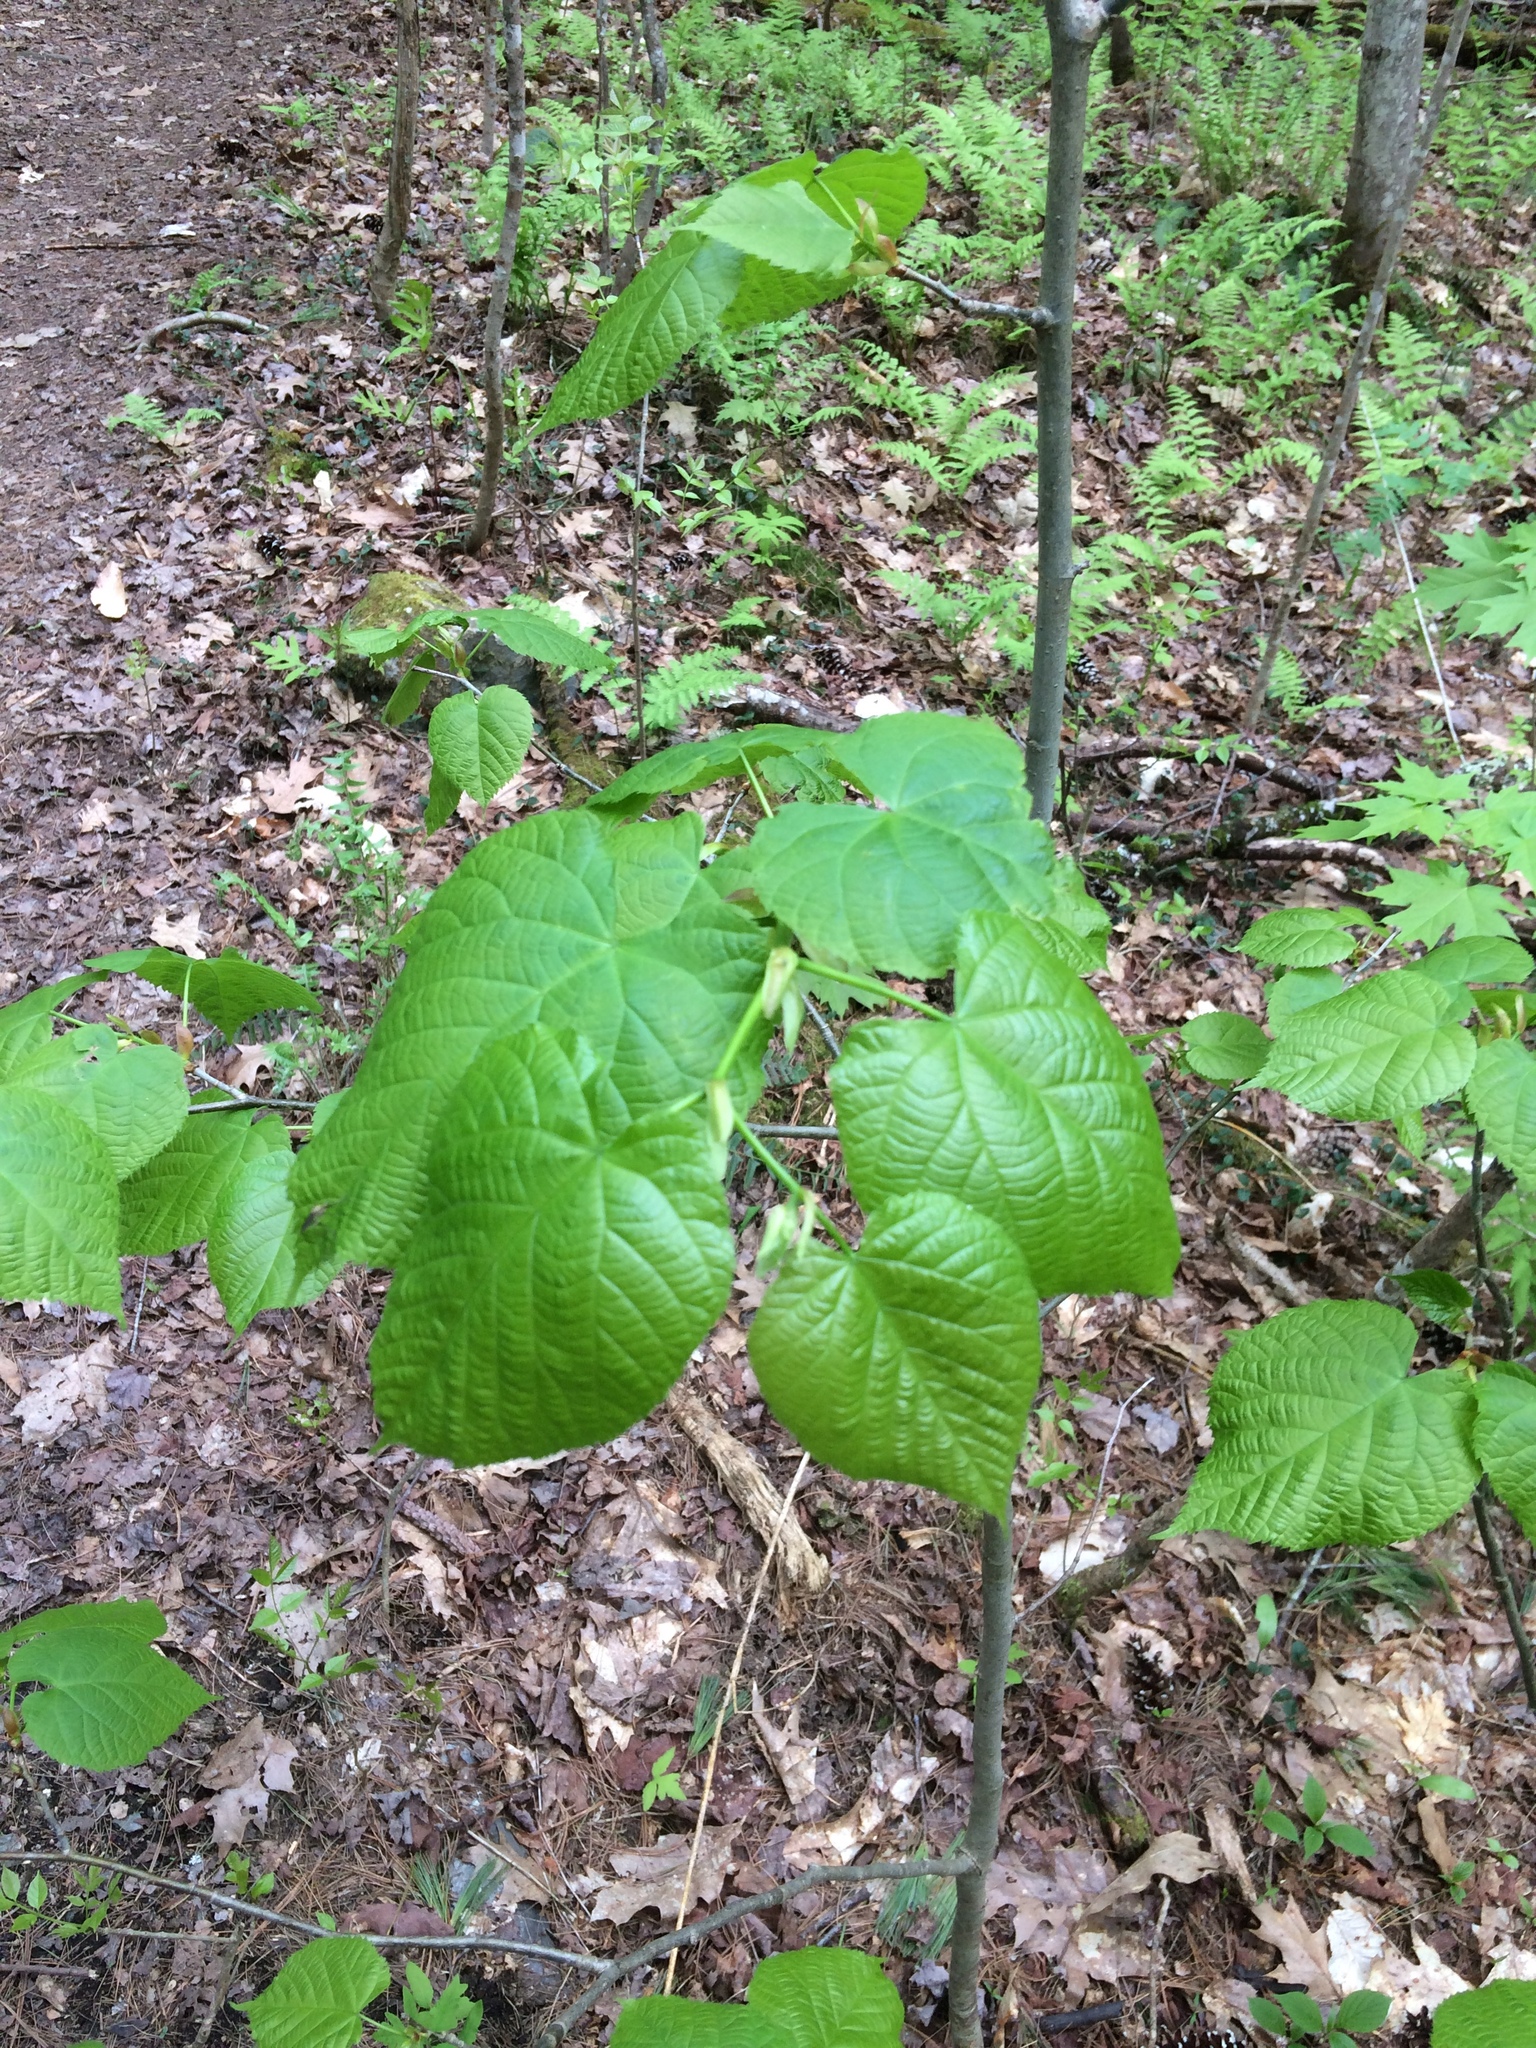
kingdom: Plantae
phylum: Tracheophyta
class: Magnoliopsida
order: Malvales
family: Malvaceae
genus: Tilia
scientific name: Tilia americana
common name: Basswood
